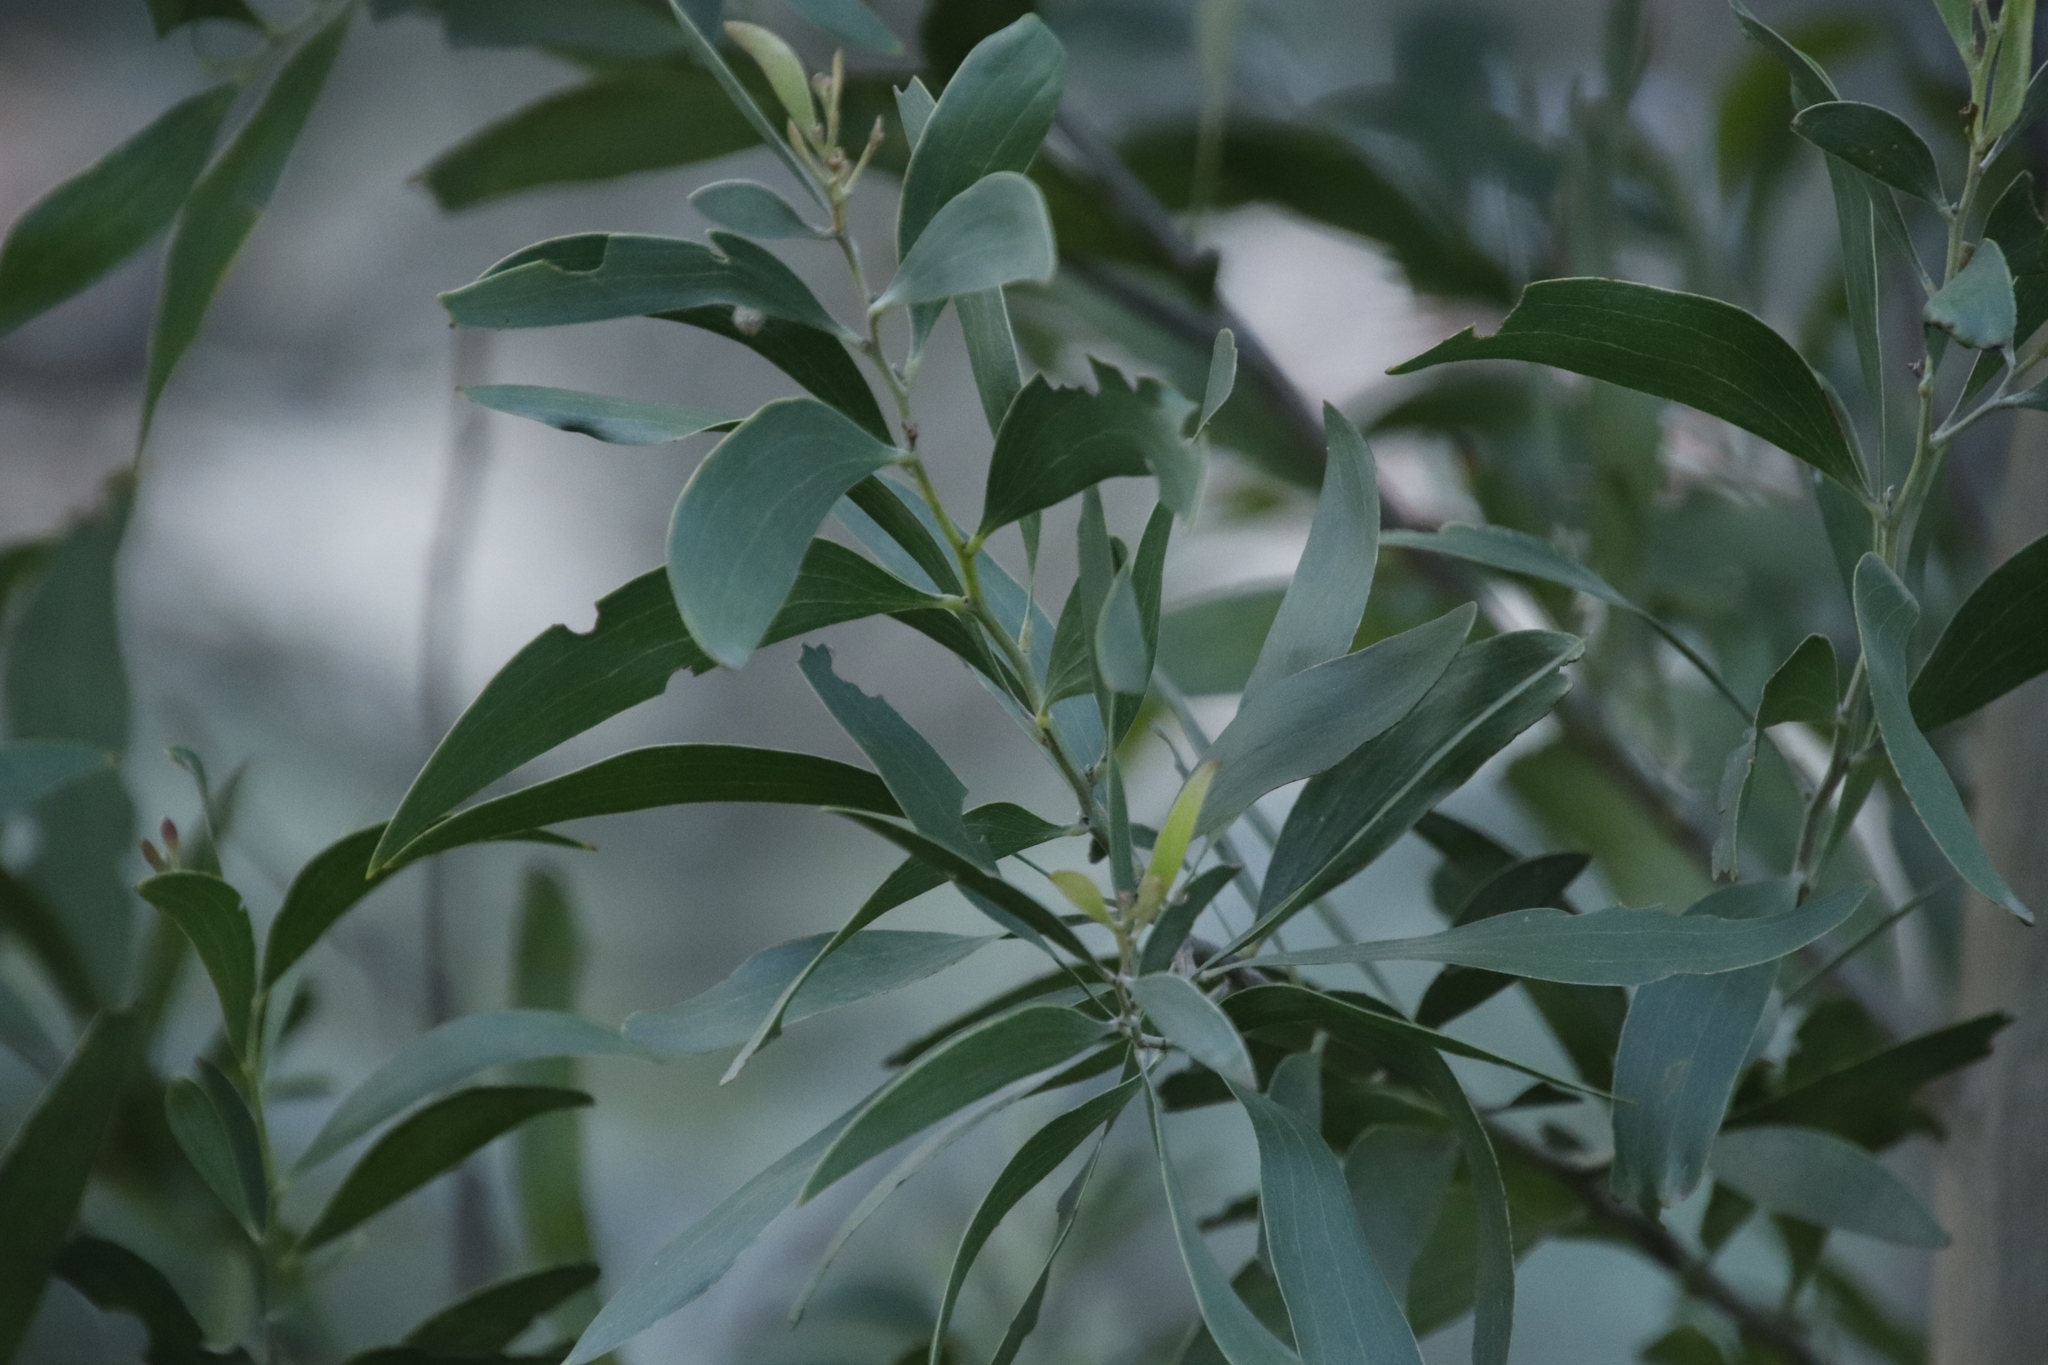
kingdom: Plantae
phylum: Tracheophyta
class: Magnoliopsida
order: Fabales
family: Fabaceae
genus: Acacia
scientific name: Acacia melanoxylon
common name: Blackwood
